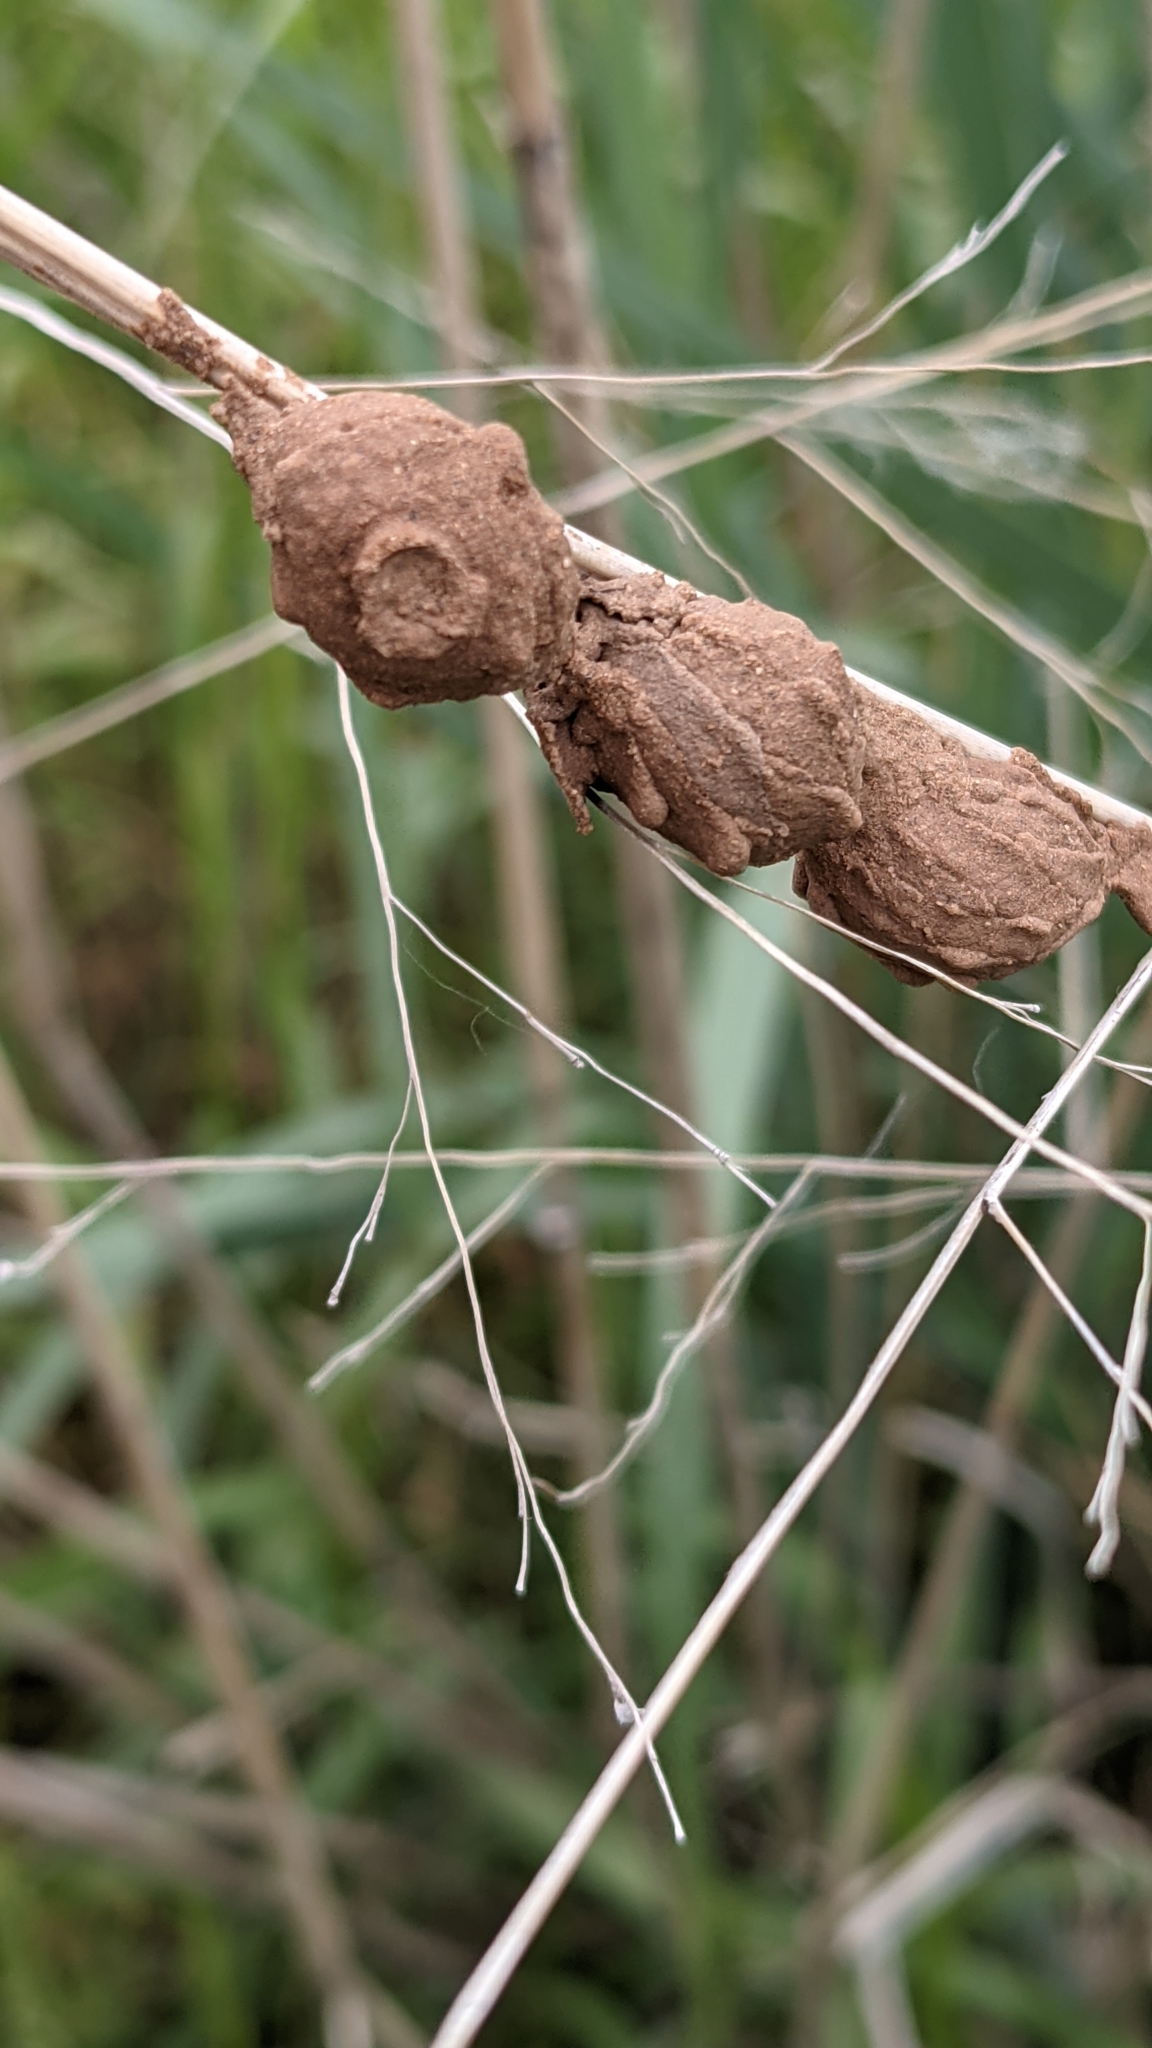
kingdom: Animalia
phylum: Arthropoda
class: Insecta
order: Hymenoptera
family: Vespidae
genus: Eumenes
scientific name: Eumenes fraternus
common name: Fraternal potter wasp
